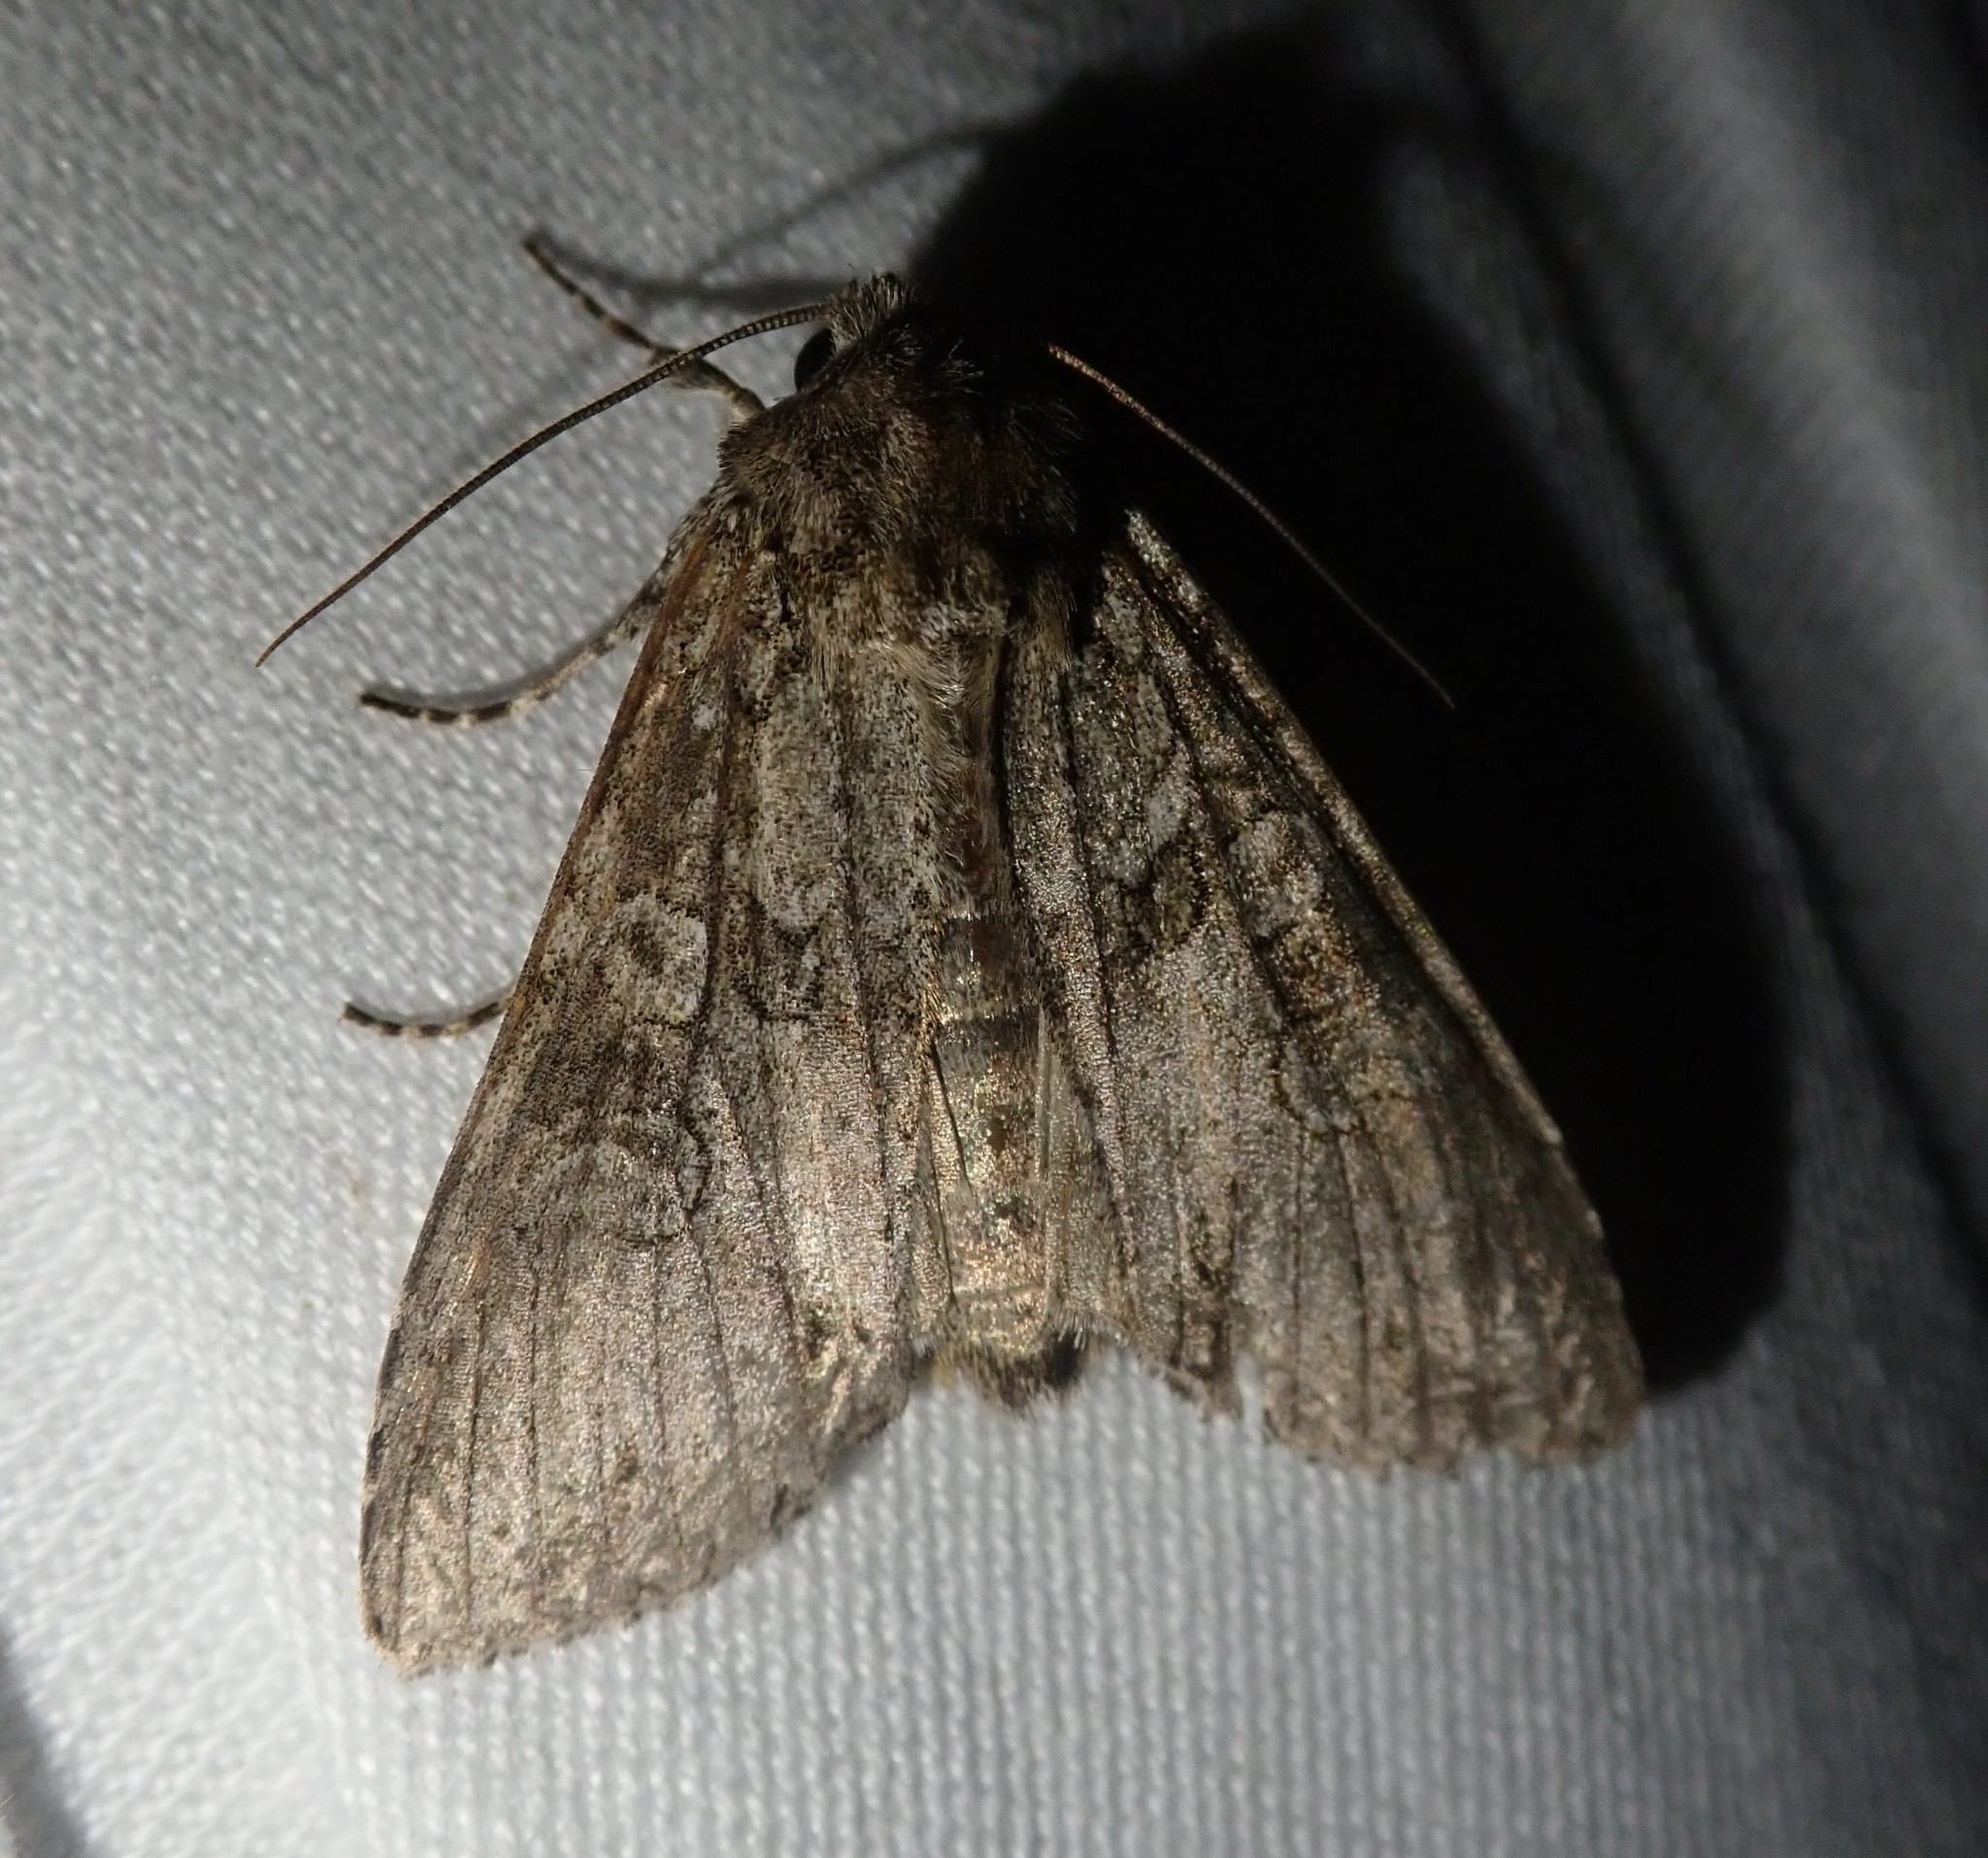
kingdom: Animalia
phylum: Arthropoda
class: Insecta
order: Lepidoptera
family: Noctuidae
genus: Polia
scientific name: Polia nebulosa
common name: Grey arches
